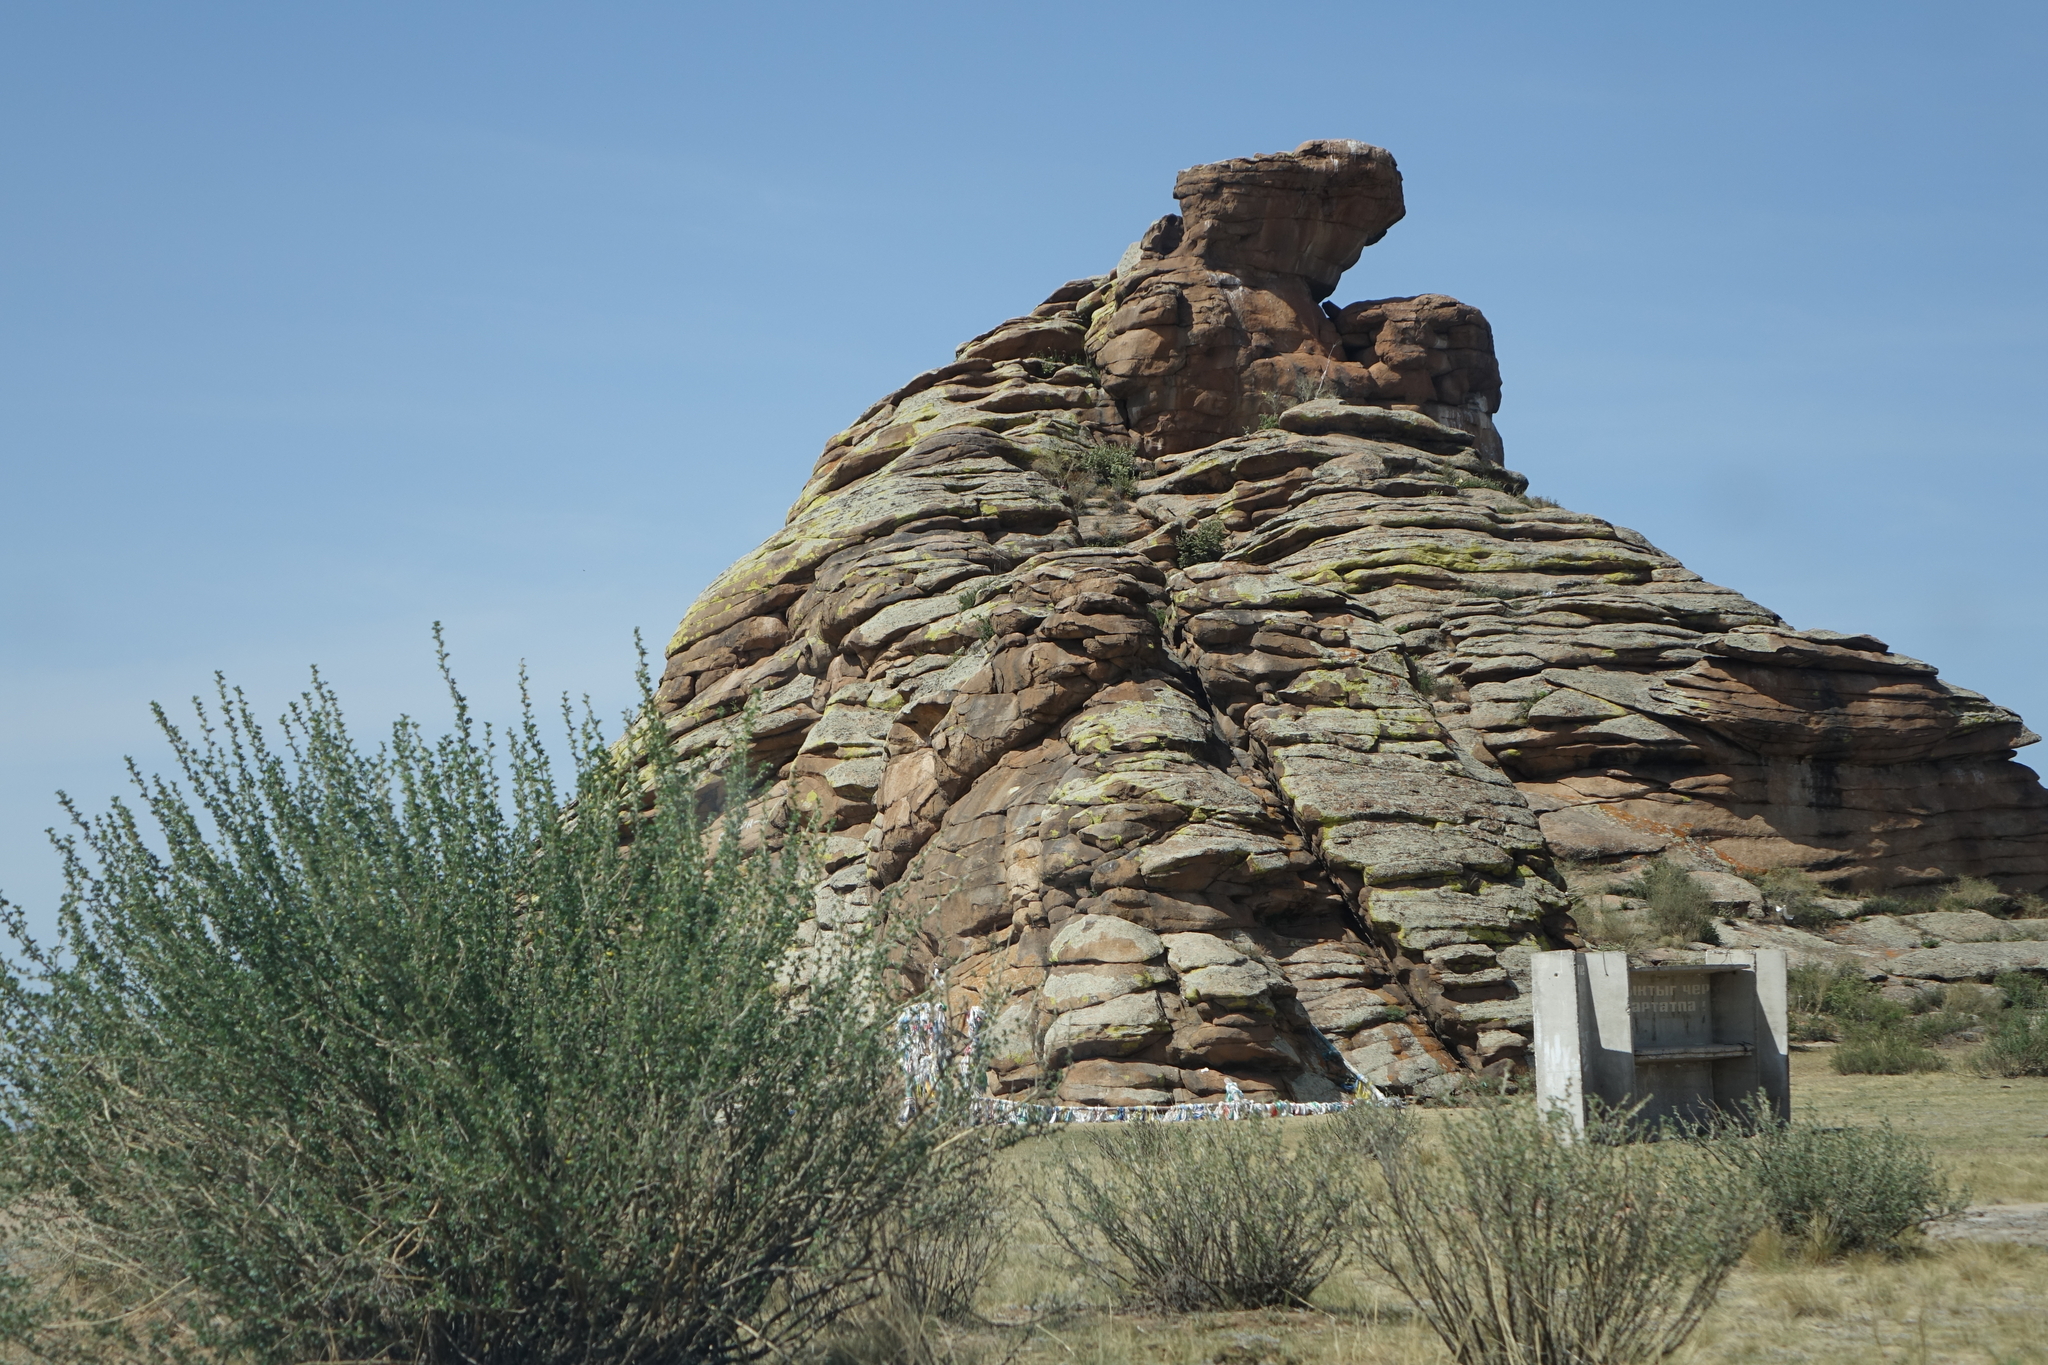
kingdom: Plantae
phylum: Tracheophyta
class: Magnoliopsida
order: Fabales
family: Fabaceae
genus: Caragana
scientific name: Caragana bungei
